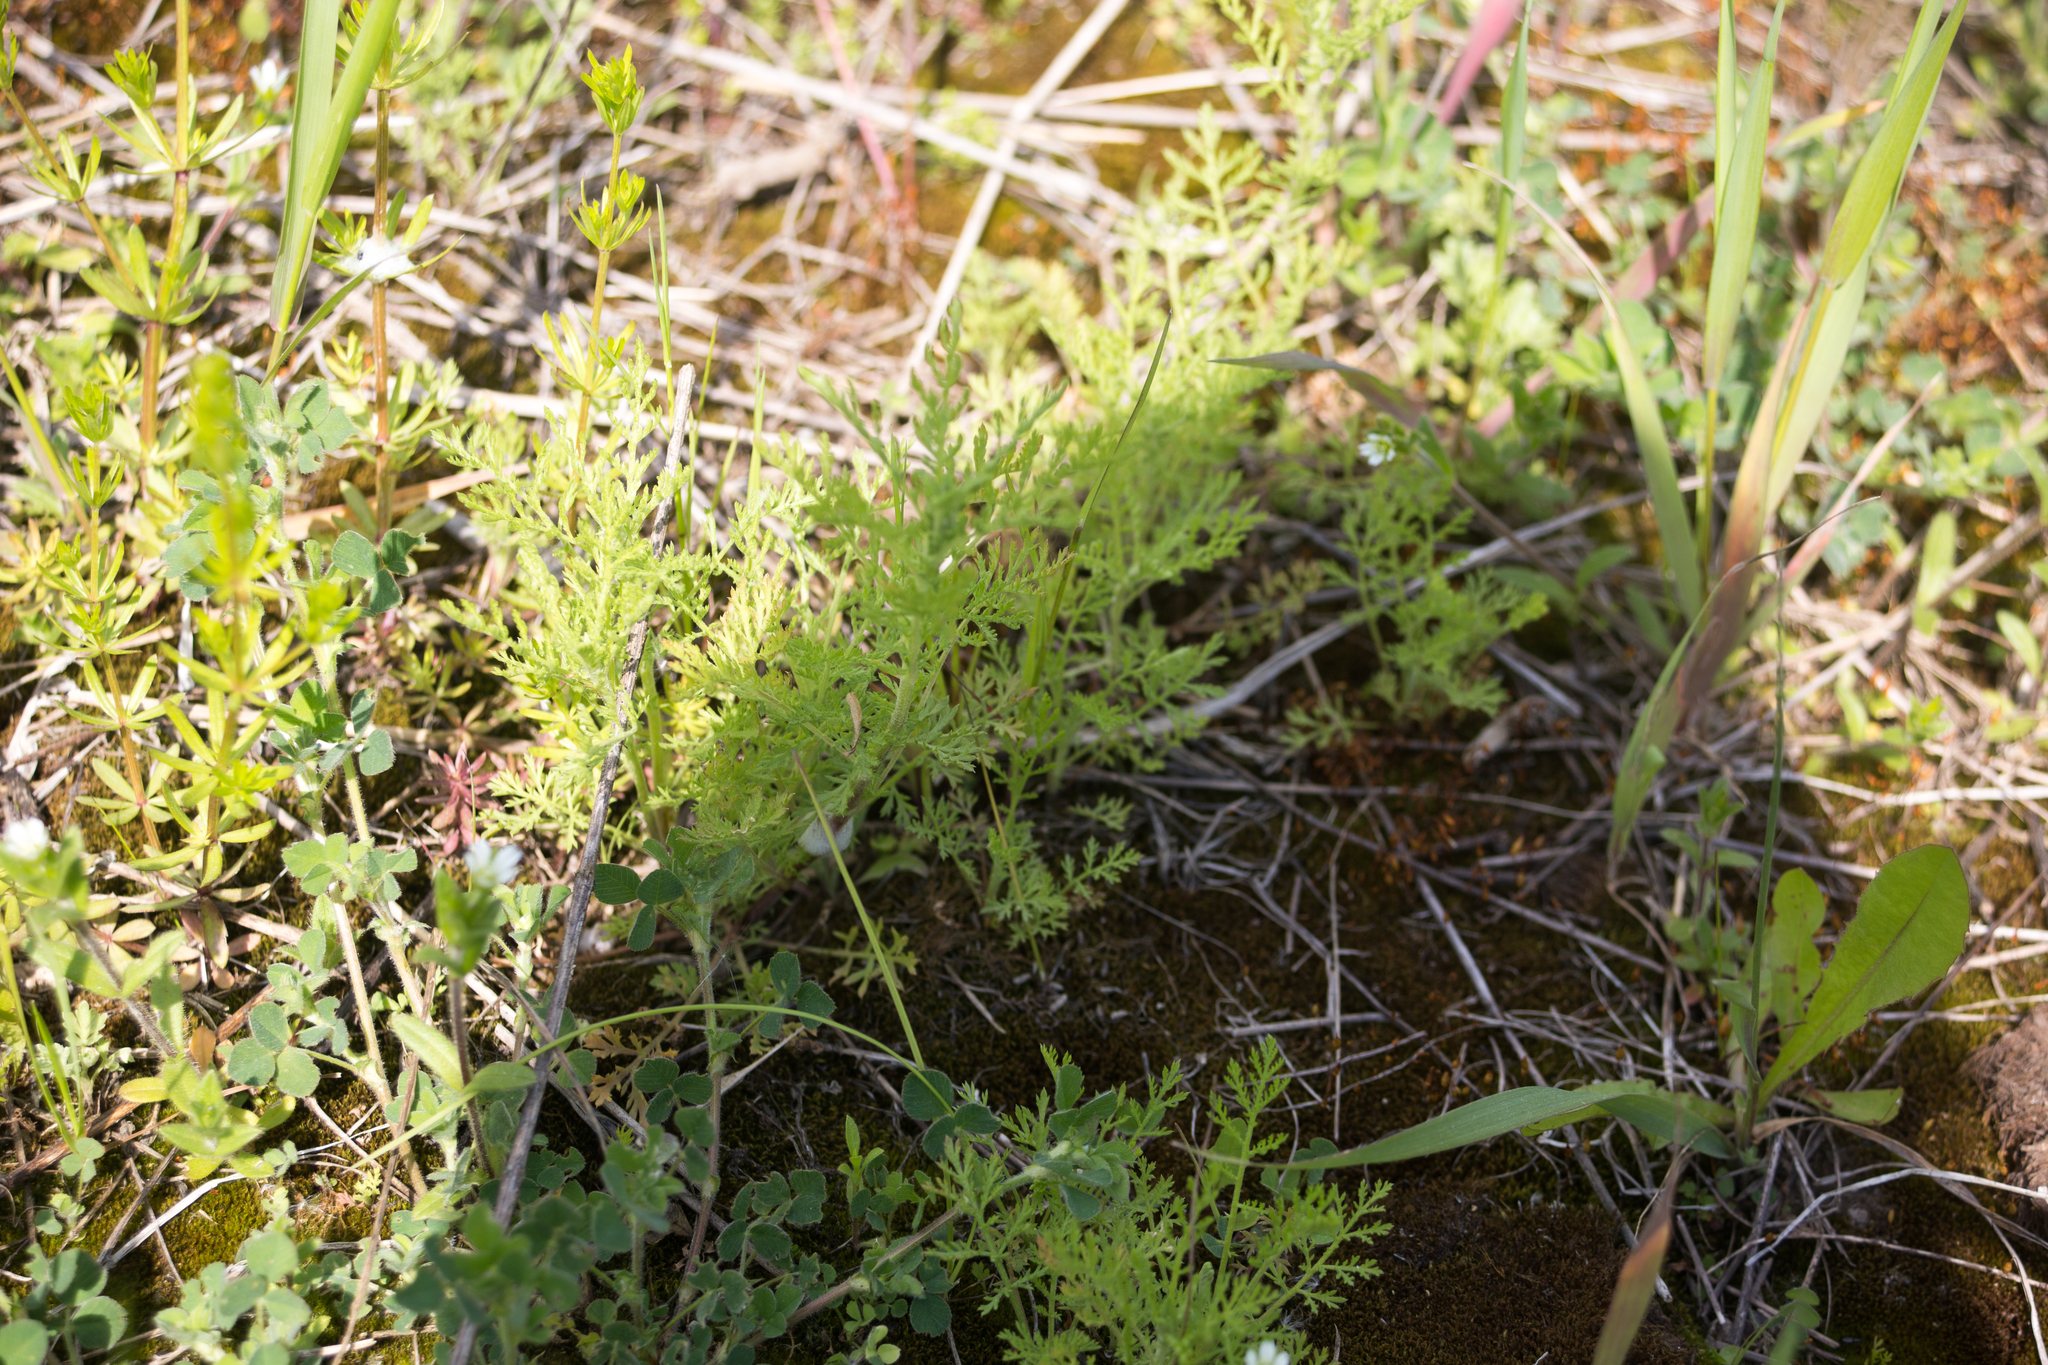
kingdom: Plantae
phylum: Tracheophyta
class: Magnoliopsida
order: Asterales
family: Asteraceae
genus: Achillea
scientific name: Achillea nobilis
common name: Noble yarrow
